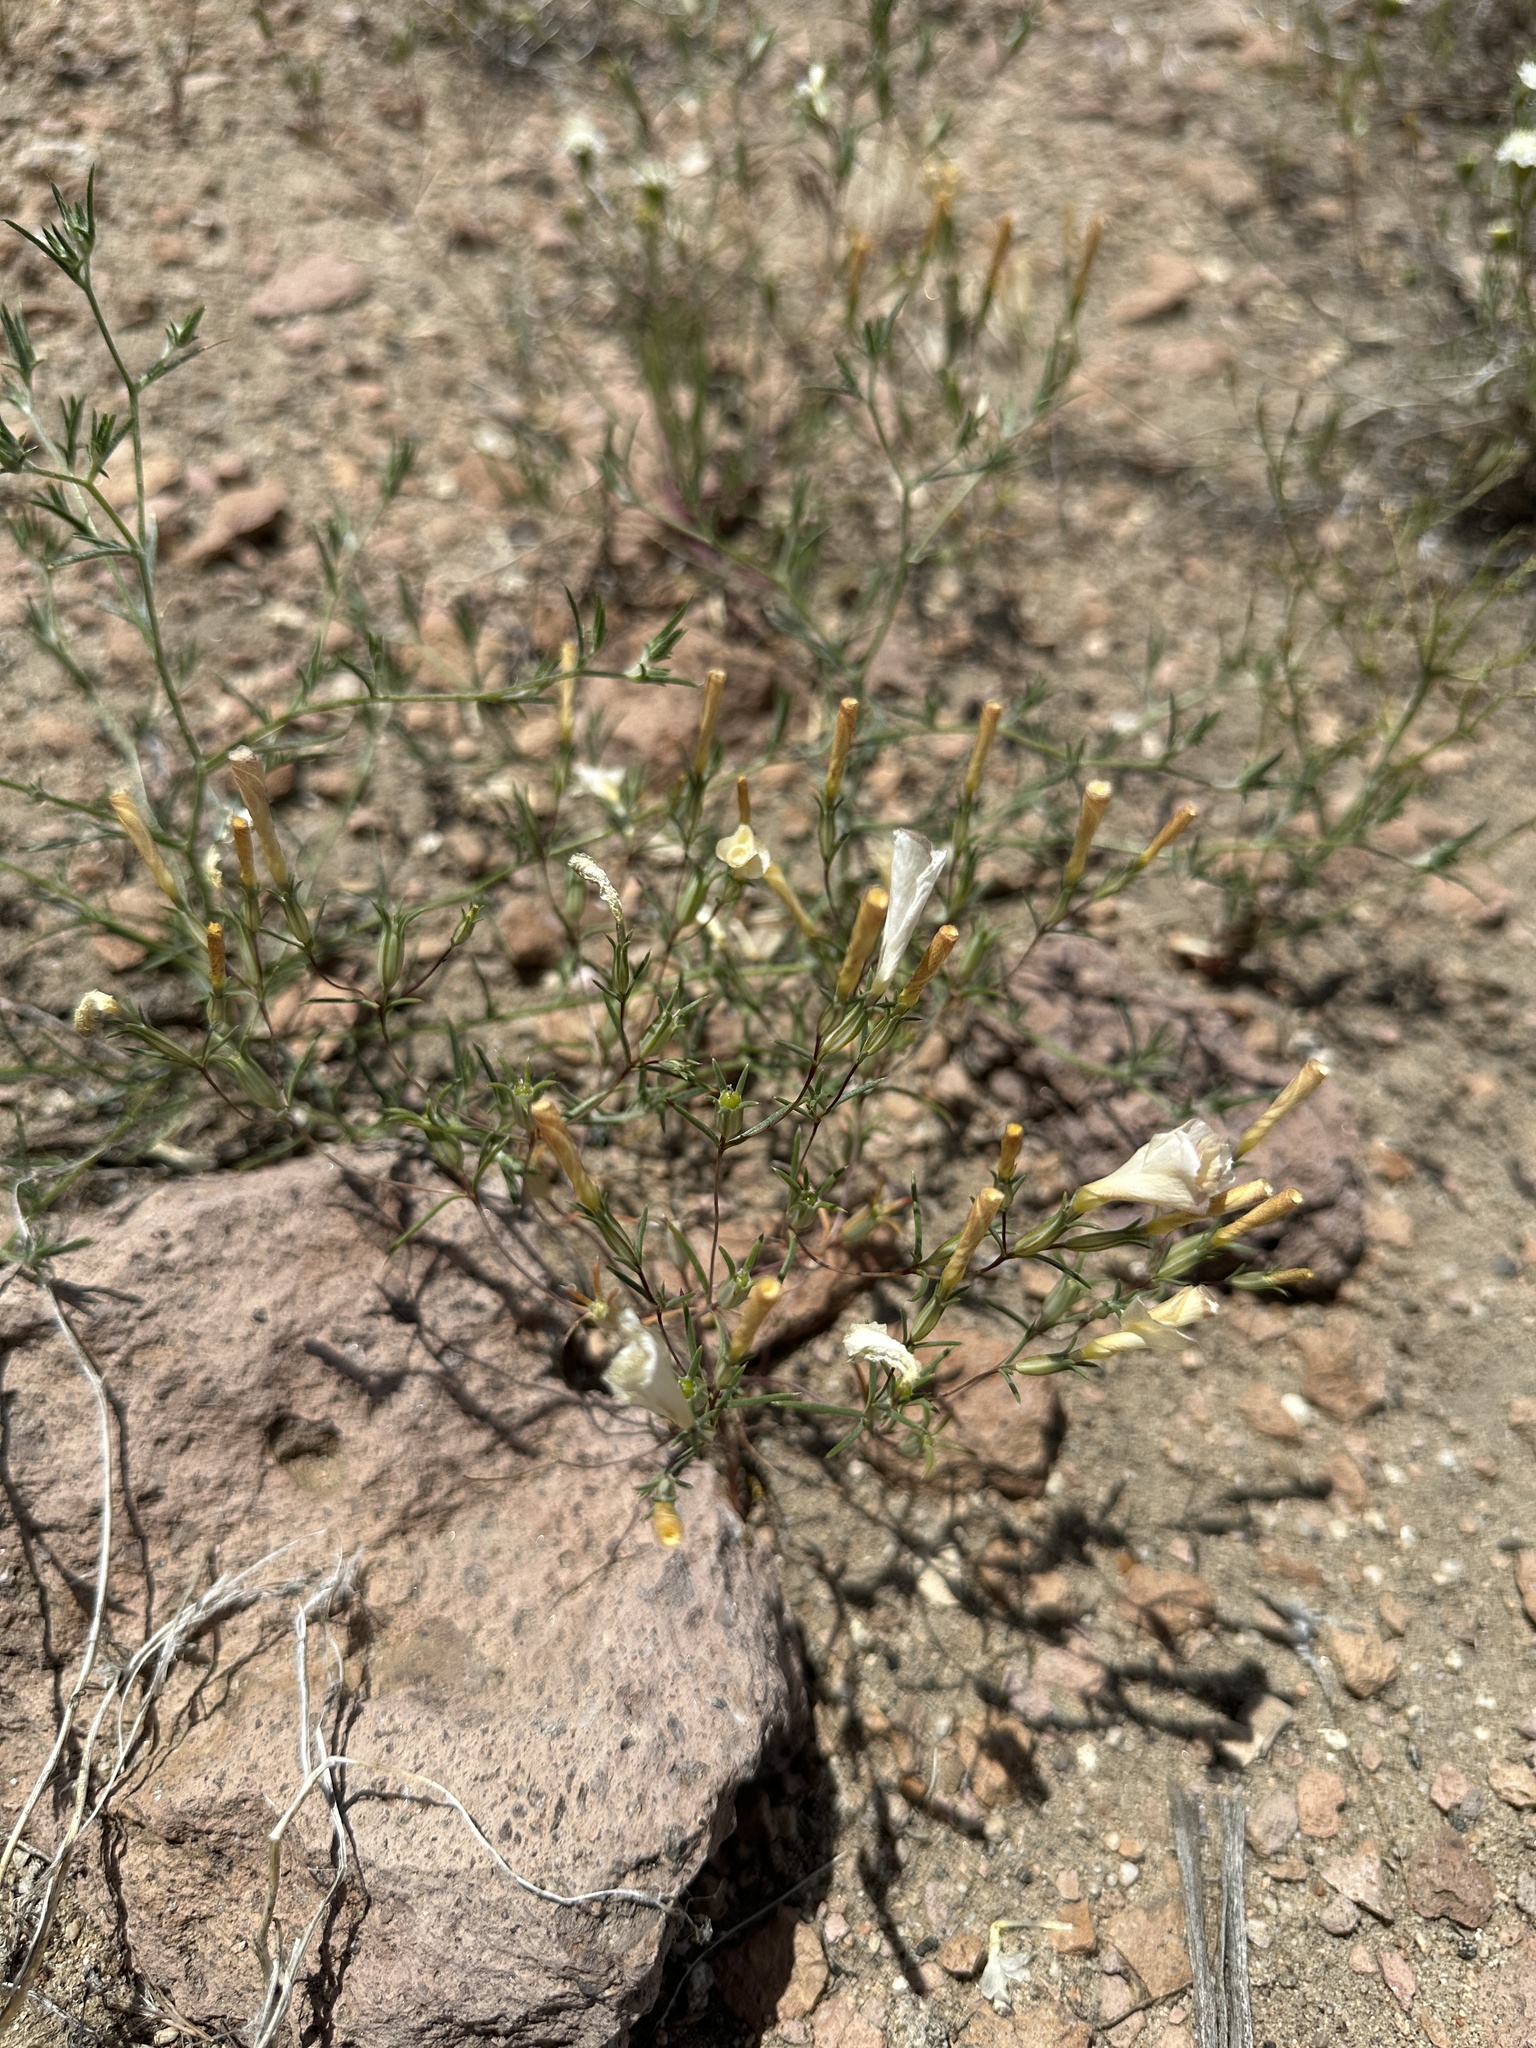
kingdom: Plantae
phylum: Tracheophyta
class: Magnoliopsida
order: Ericales
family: Polemoniaceae
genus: Linanthus
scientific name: Linanthus dichotomus
